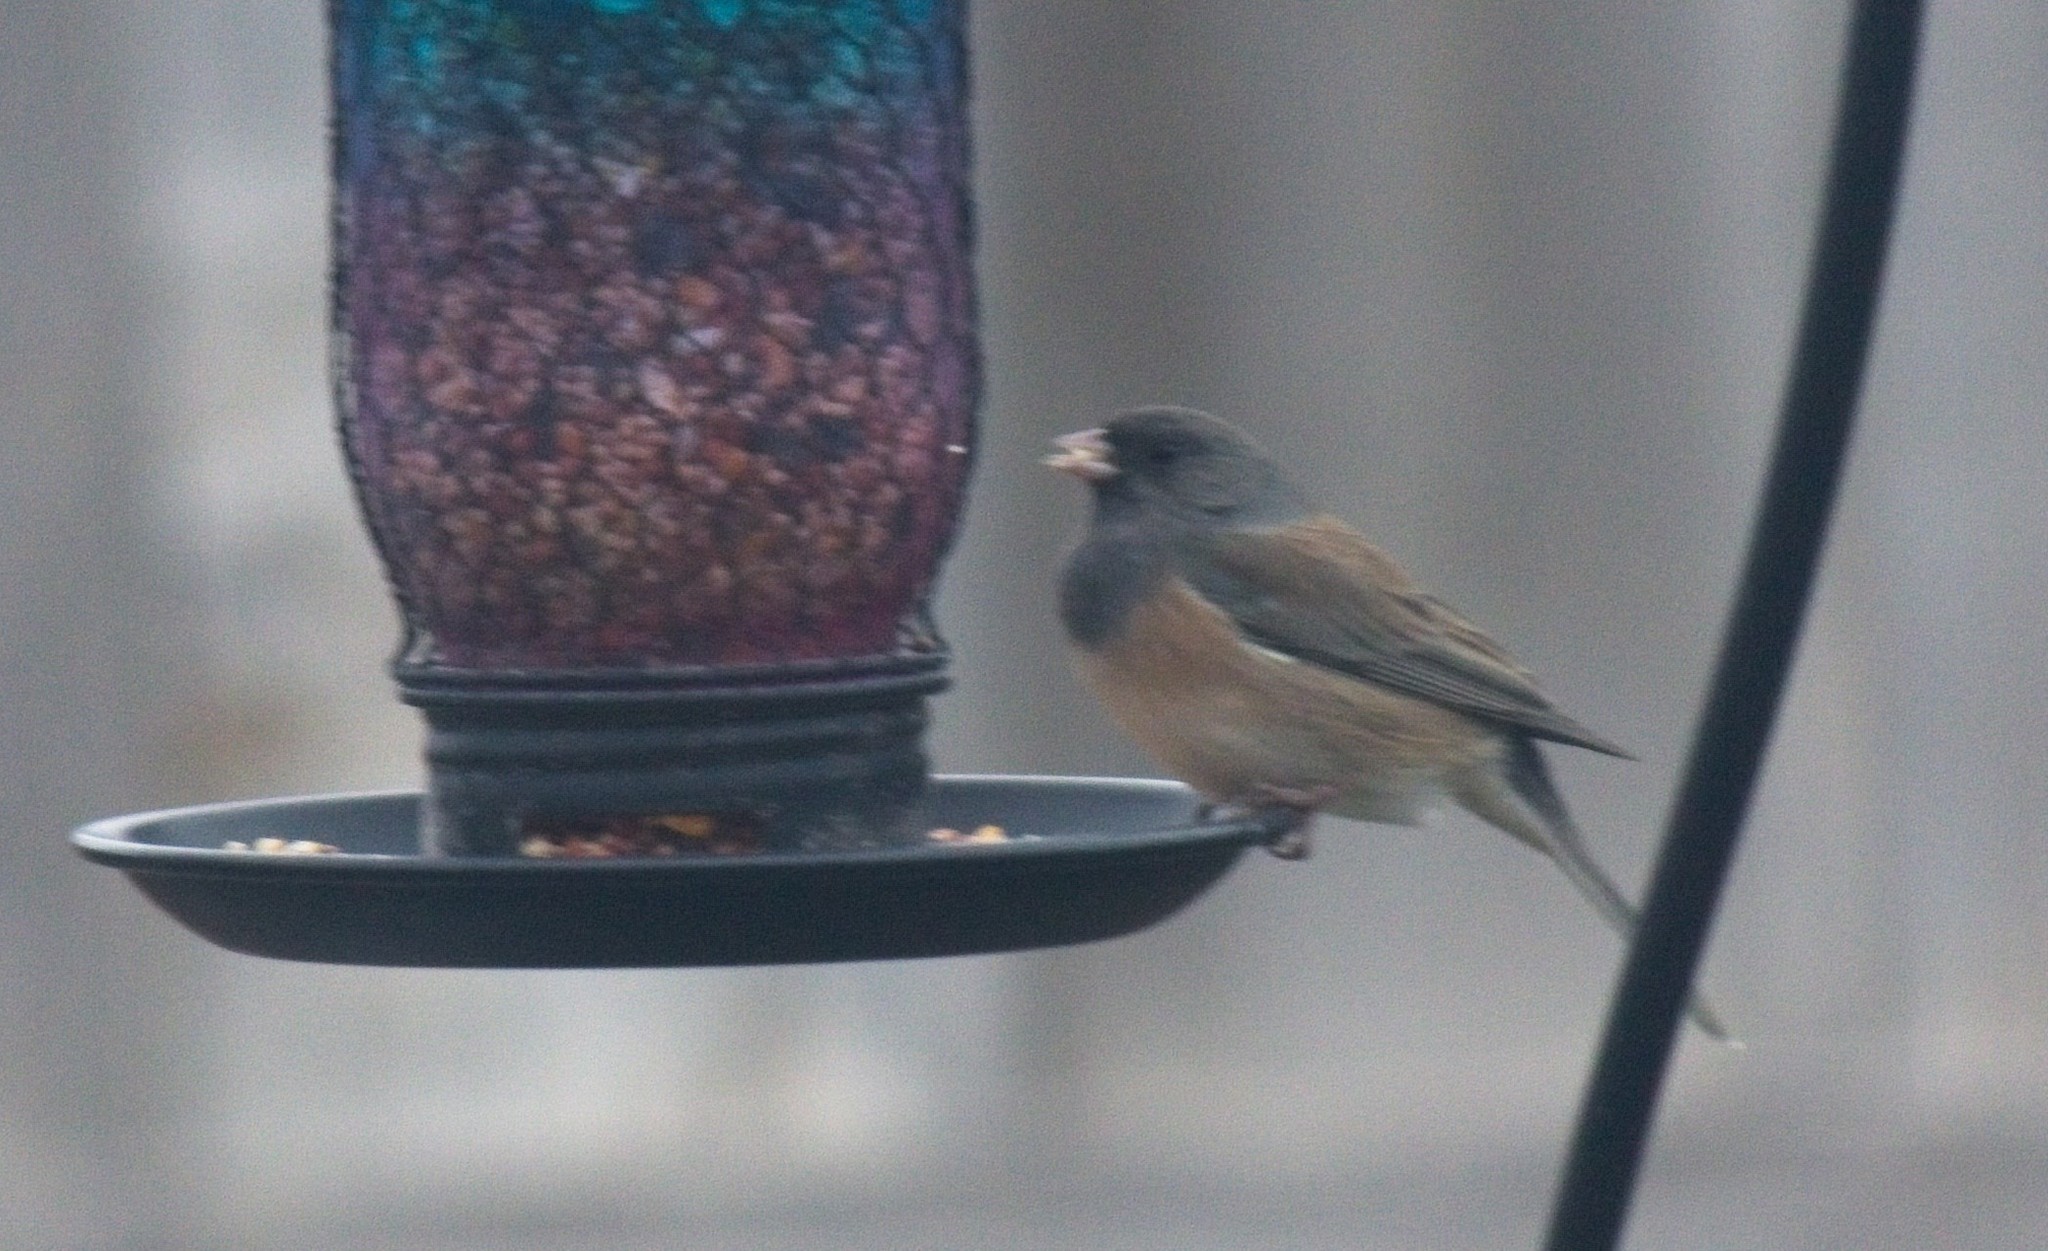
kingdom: Animalia
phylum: Chordata
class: Aves
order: Passeriformes
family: Passerellidae
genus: Junco
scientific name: Junco hyemalis
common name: Dark-eyed junco
